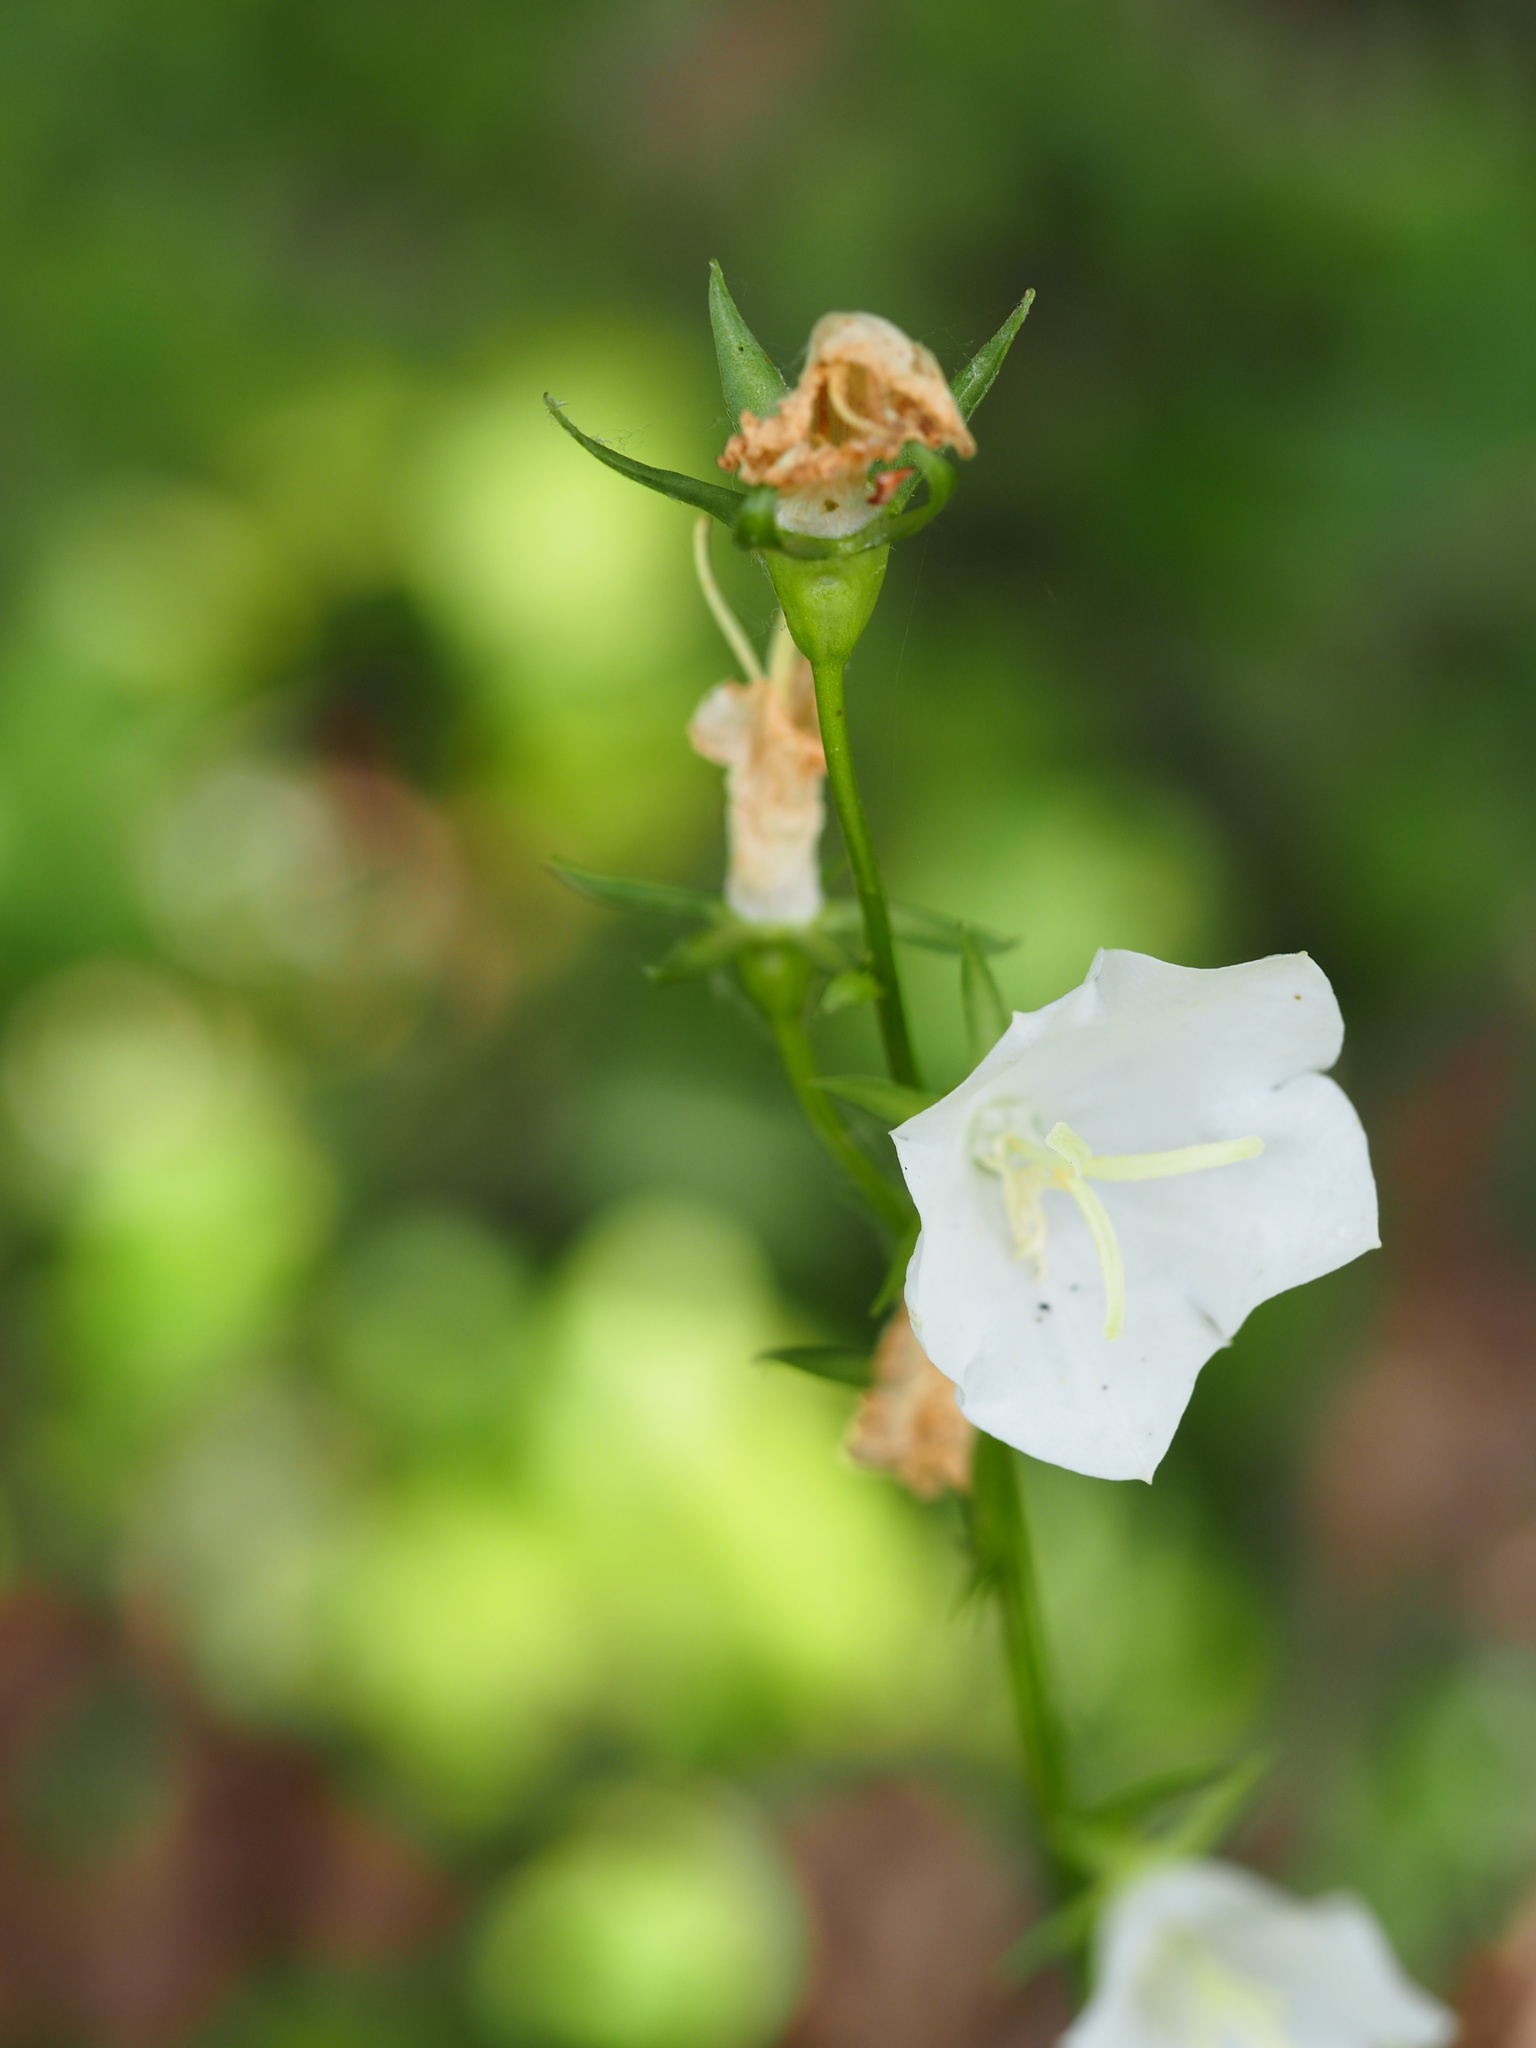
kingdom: Plantae
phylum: Tracheophyta
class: Magnoliopsida
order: Asterales
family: Campanulaceae
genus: Campanula
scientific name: Campanula persicifolia
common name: Peach-leaved bellflower
